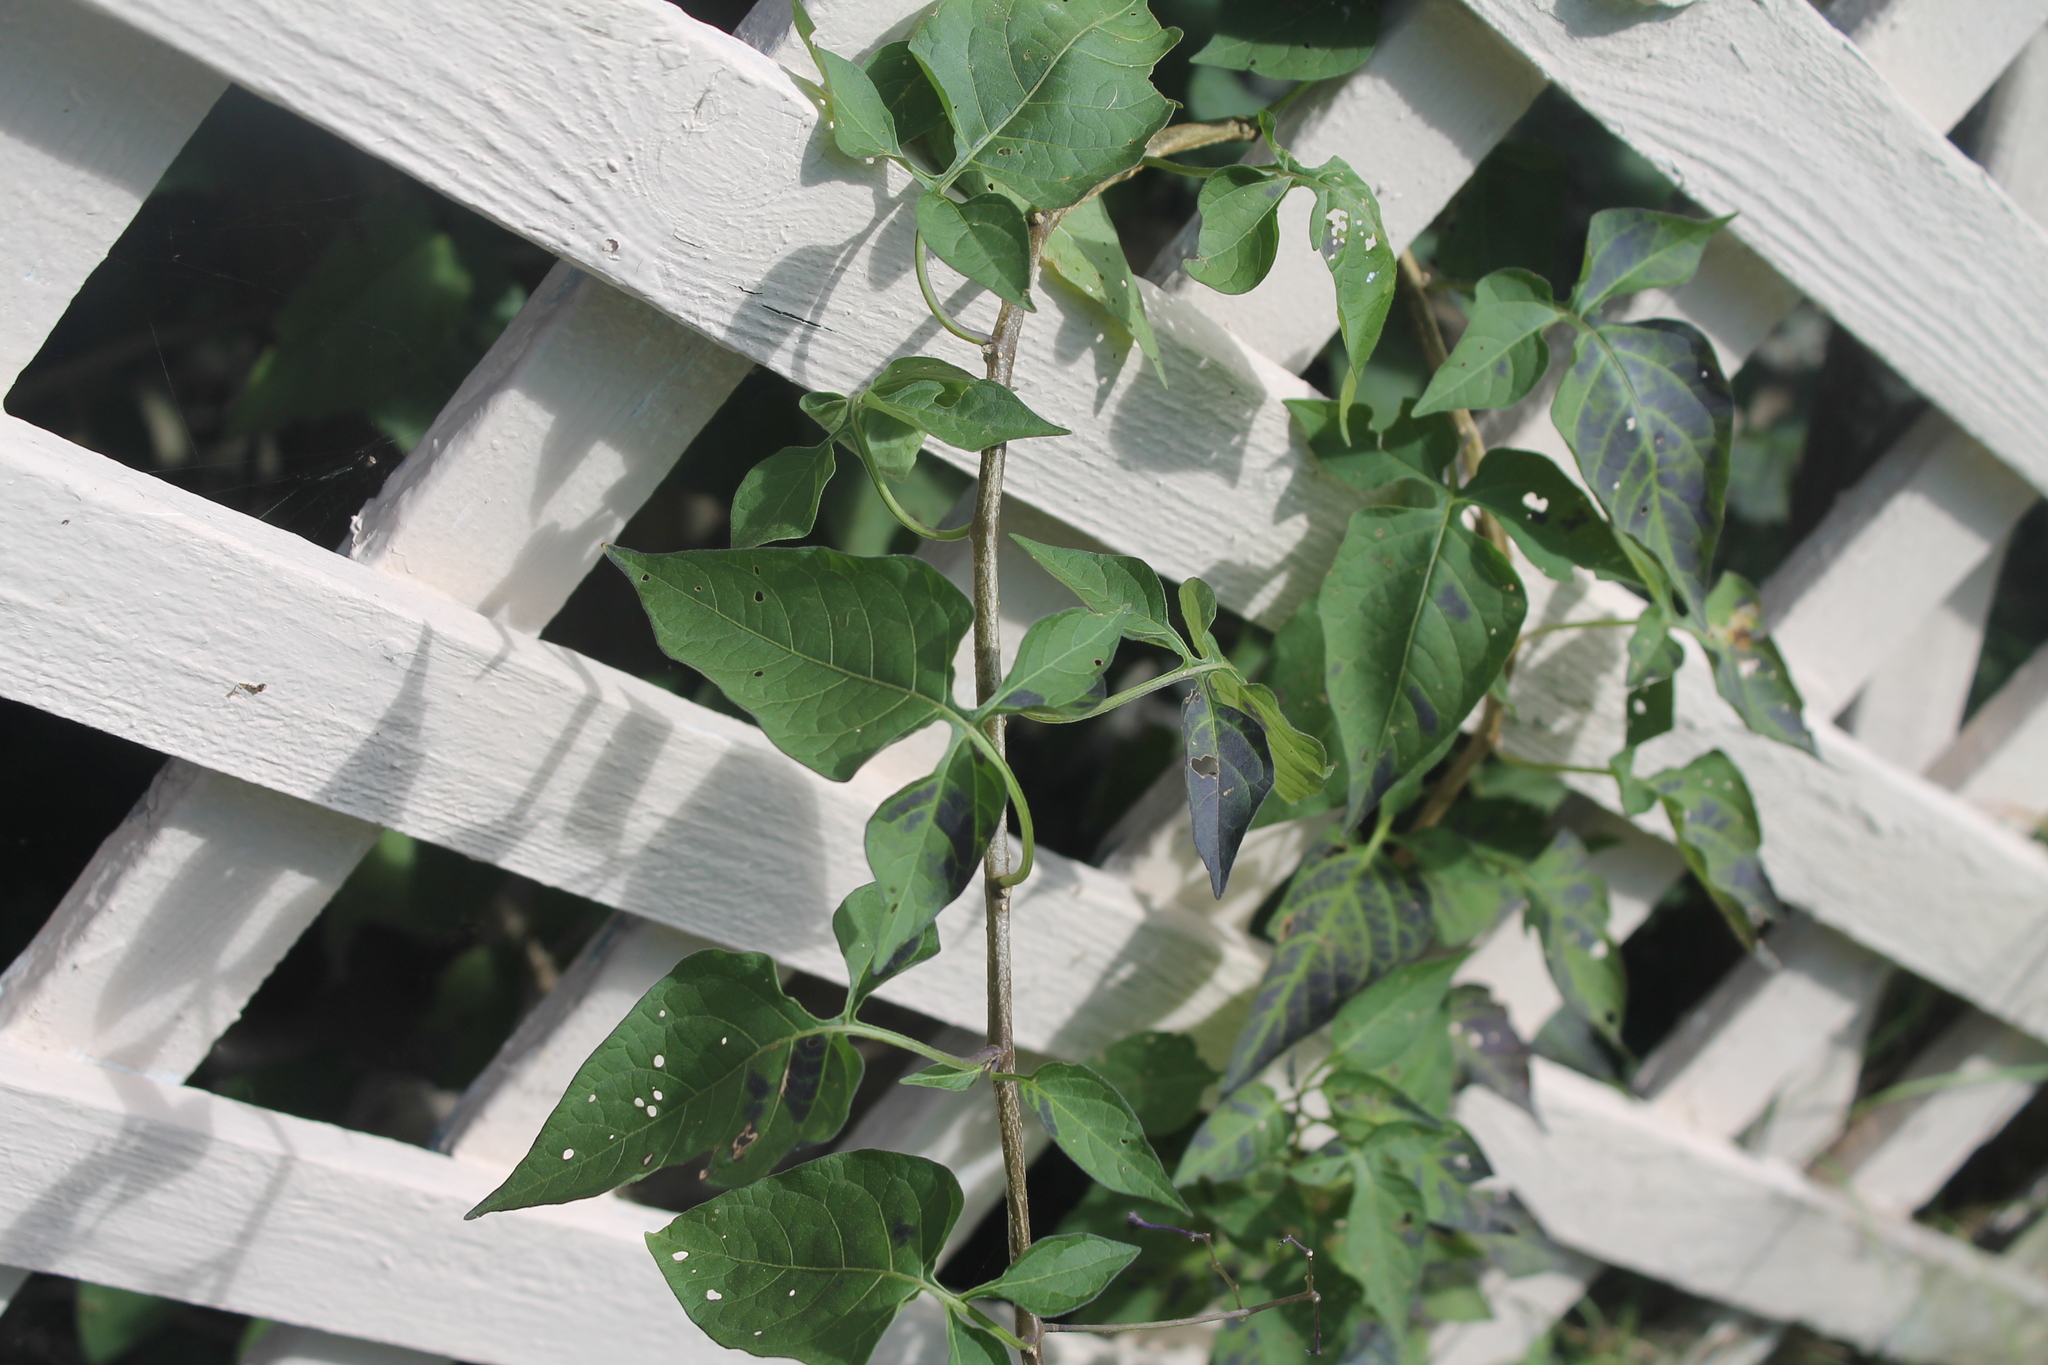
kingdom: Plantae
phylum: Tracheophyta
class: Magnoliopsida
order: Solanales
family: Solanaceae
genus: Solanum
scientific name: Solanum dulcamara
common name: Climbing nightshade
